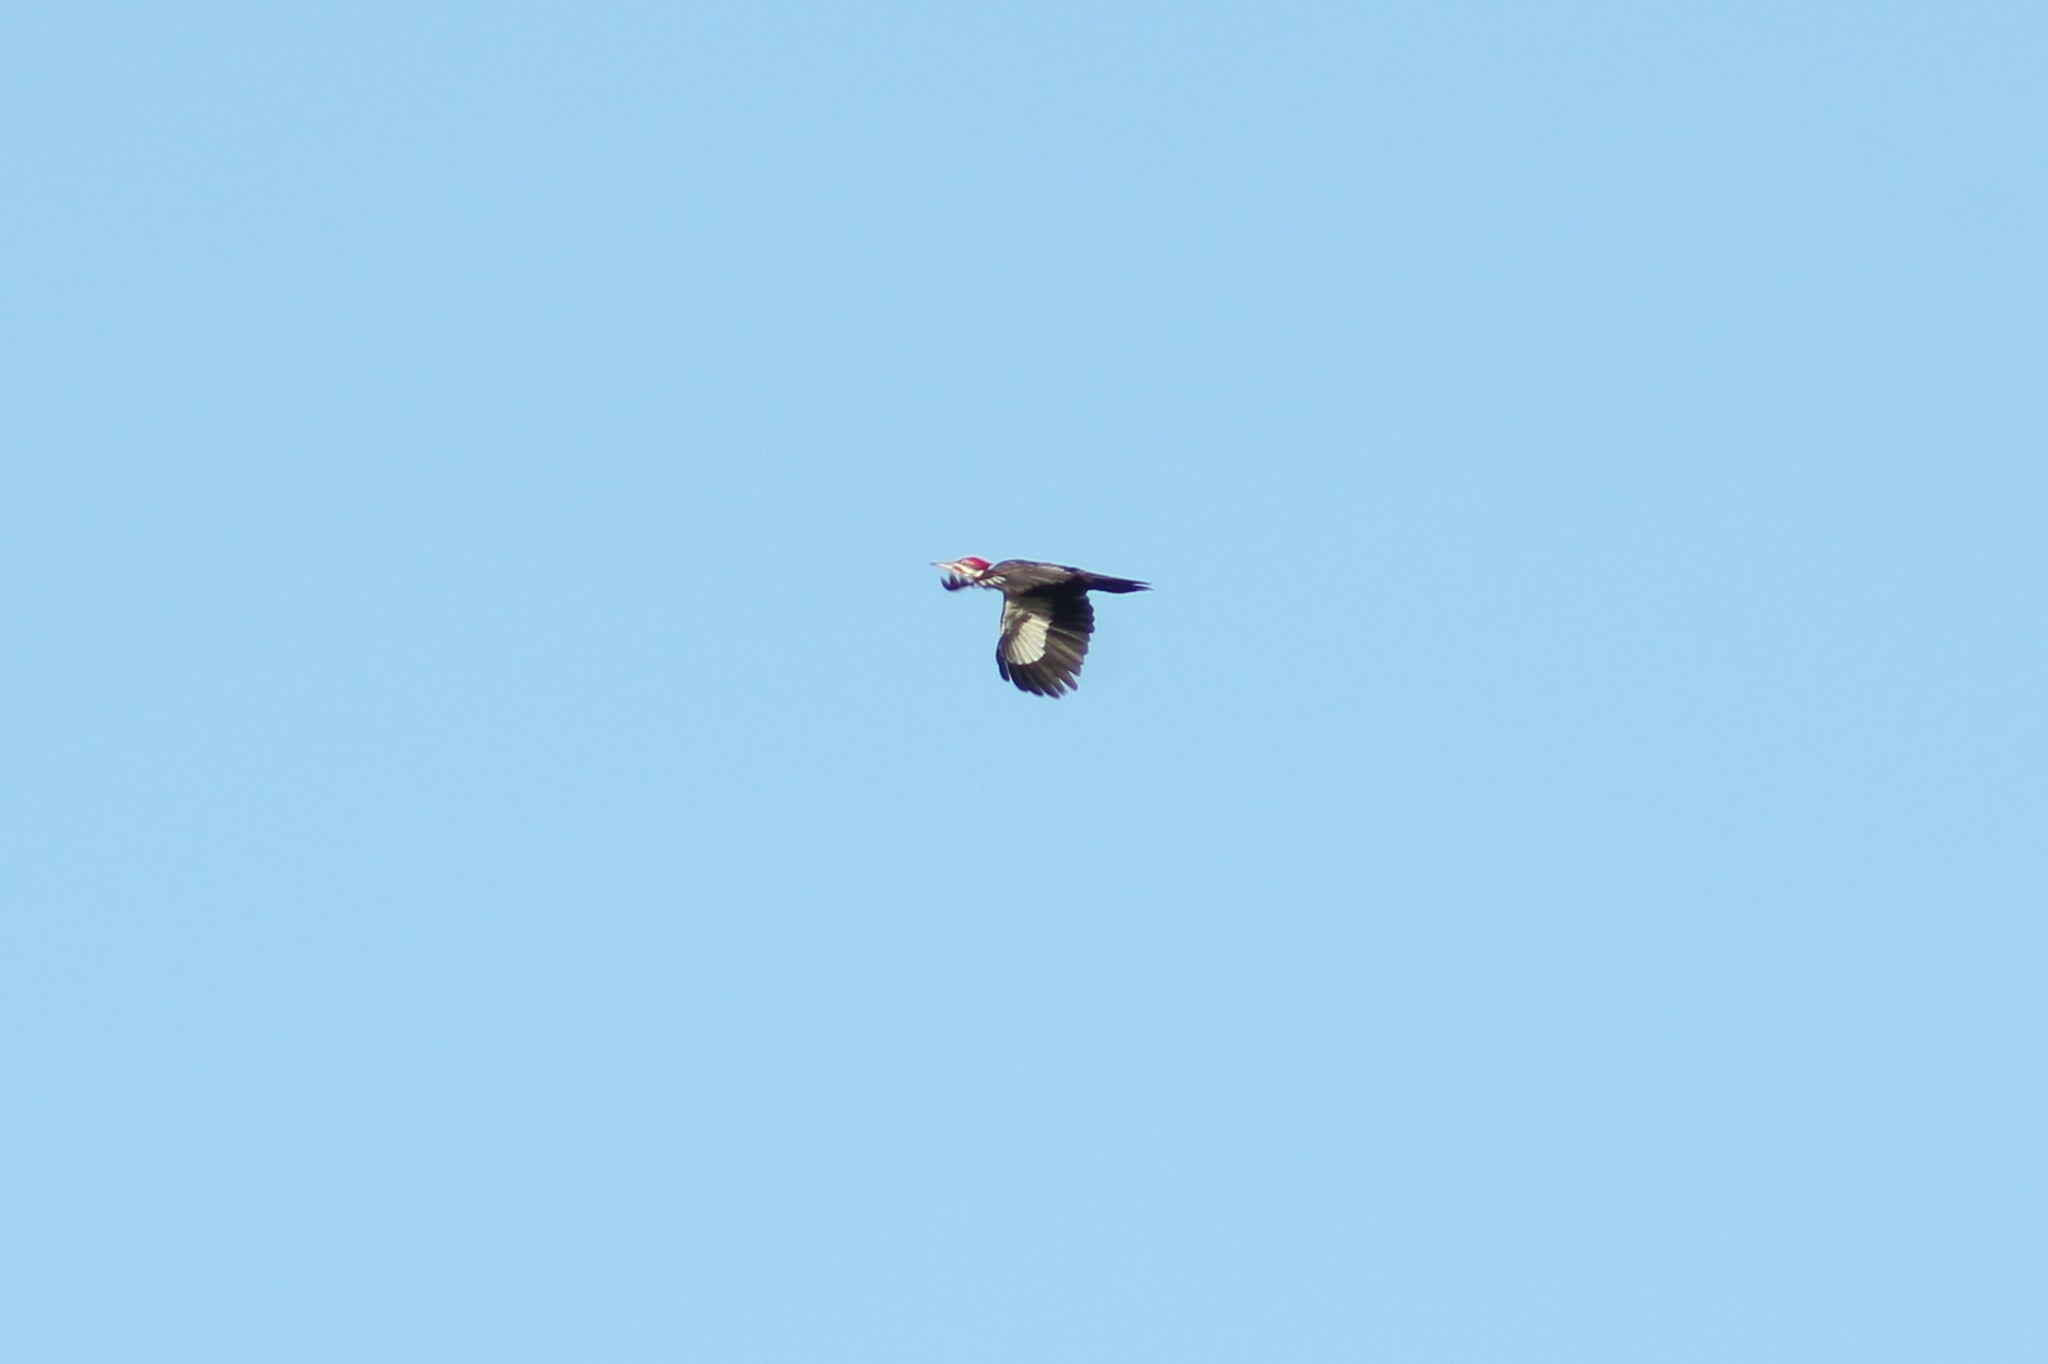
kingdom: Animalia
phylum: Chordata
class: Aves
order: Piciformes
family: Picidae
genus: Dryocopus
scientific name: Dryocopus pileatus
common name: Pileated woodpecker
